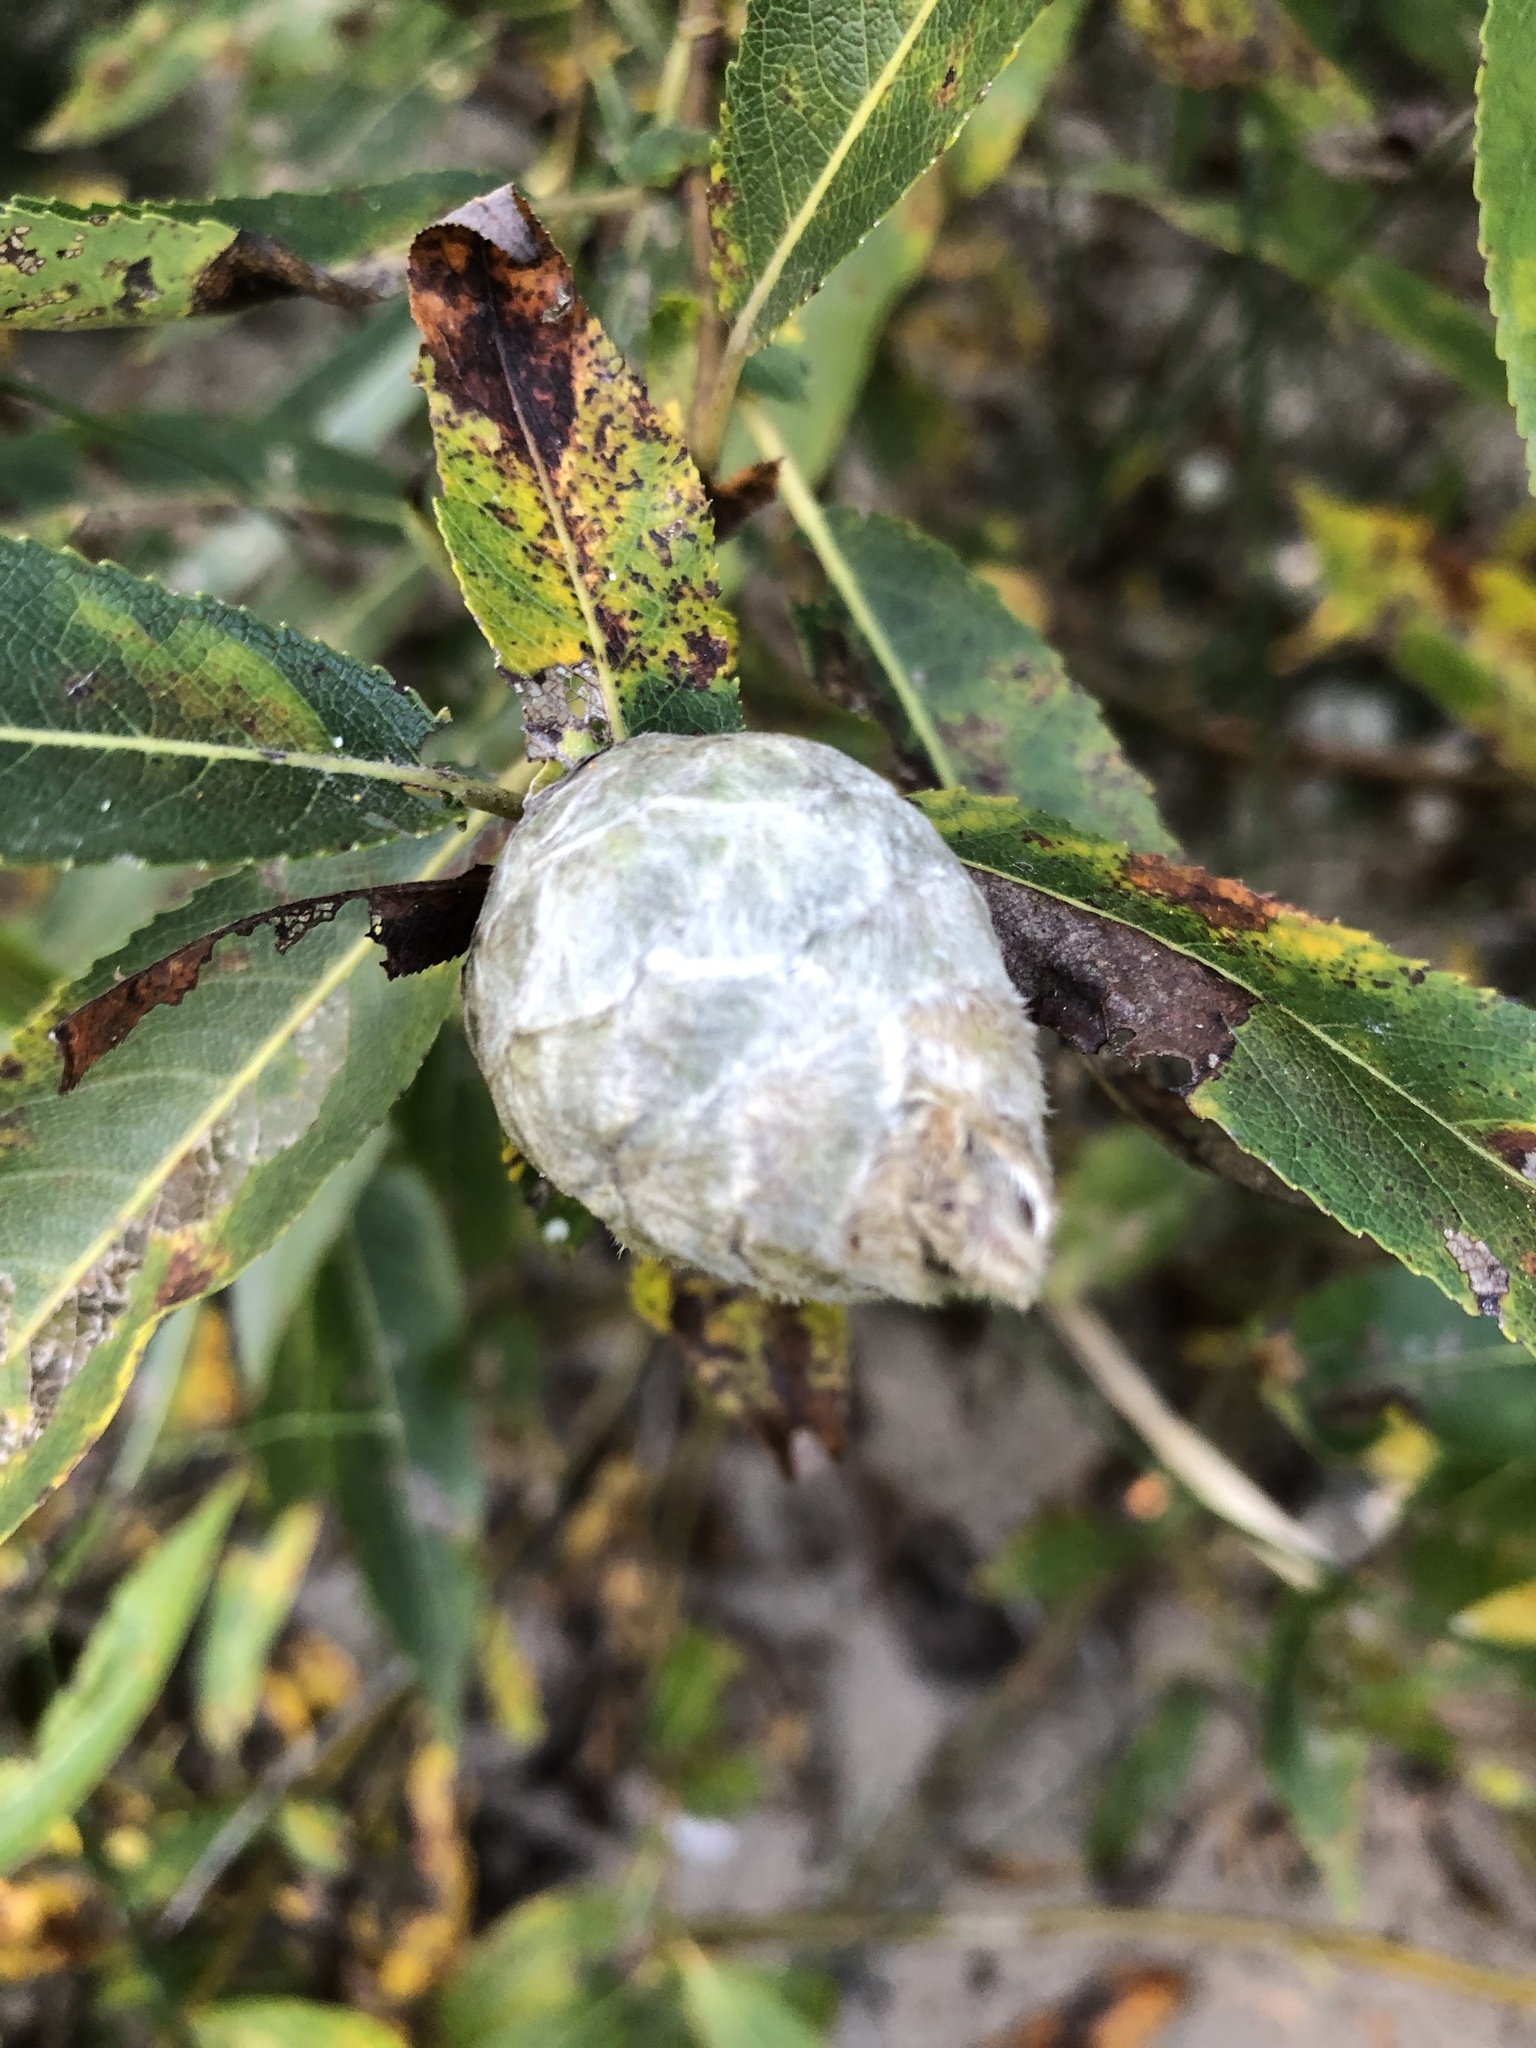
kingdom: Animalia
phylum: Arthropoda
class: Insecta
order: Diptera
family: Cecidomyiidae
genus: Rabdophaga
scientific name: Rabdophaga strobiloides
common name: Willow pinecone gall midge
